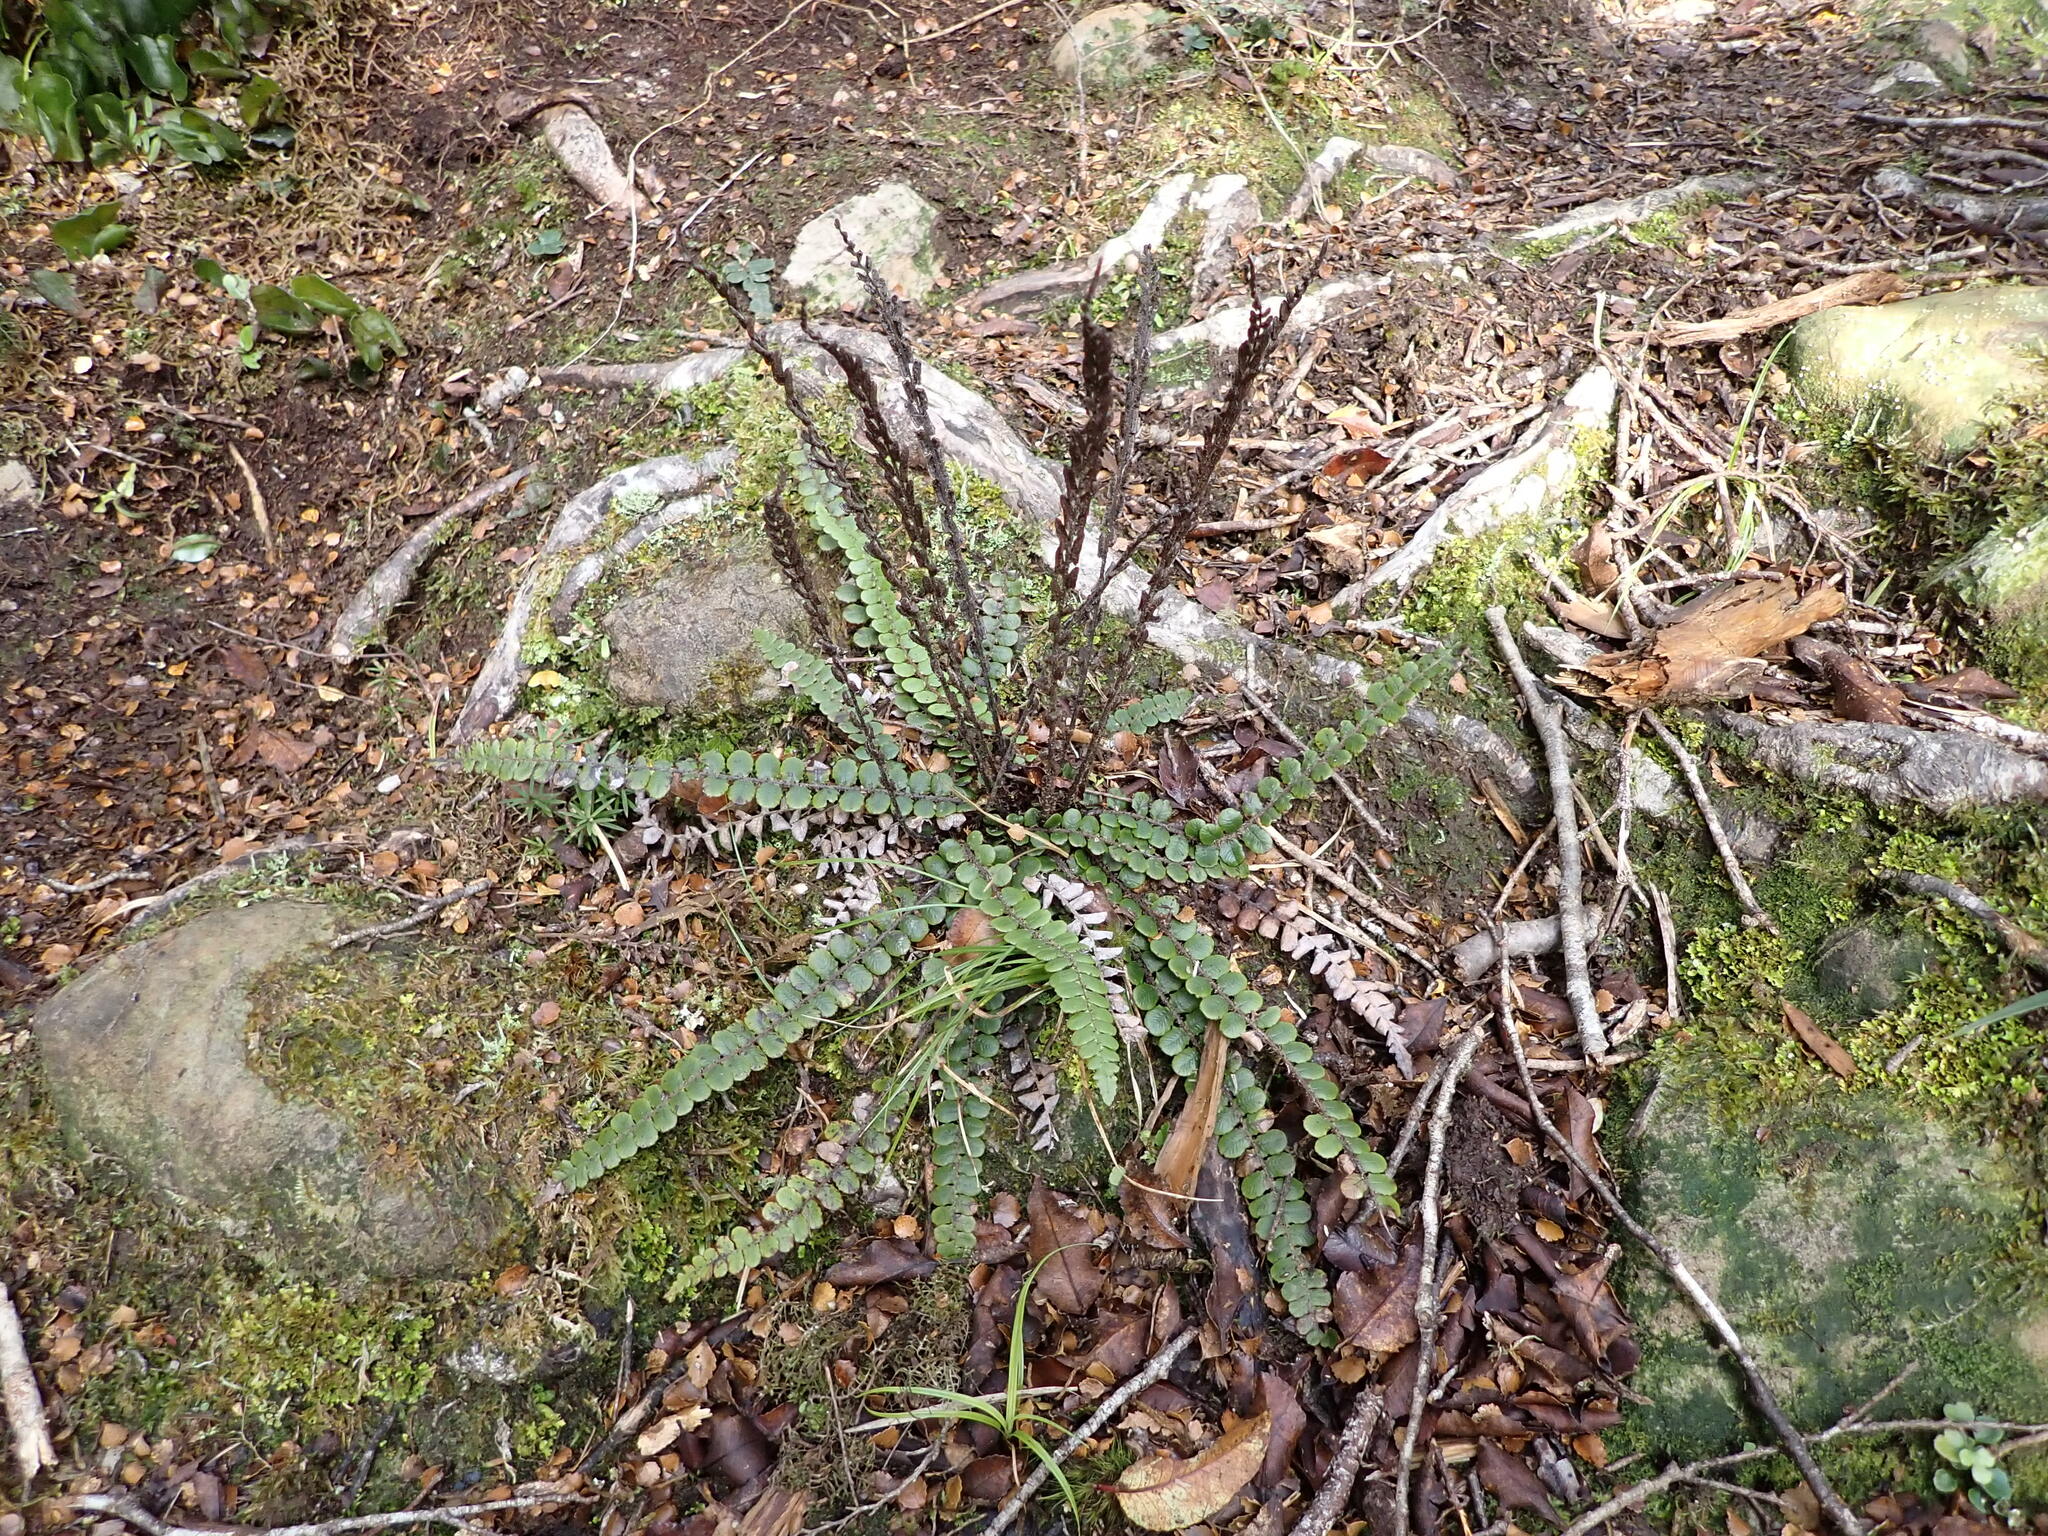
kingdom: Plantae
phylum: Tracheophyta
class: Polypodiopsida
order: Polypodiales
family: Blechnaceae
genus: Cranfillia
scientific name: Cranfillia fluviatilis
